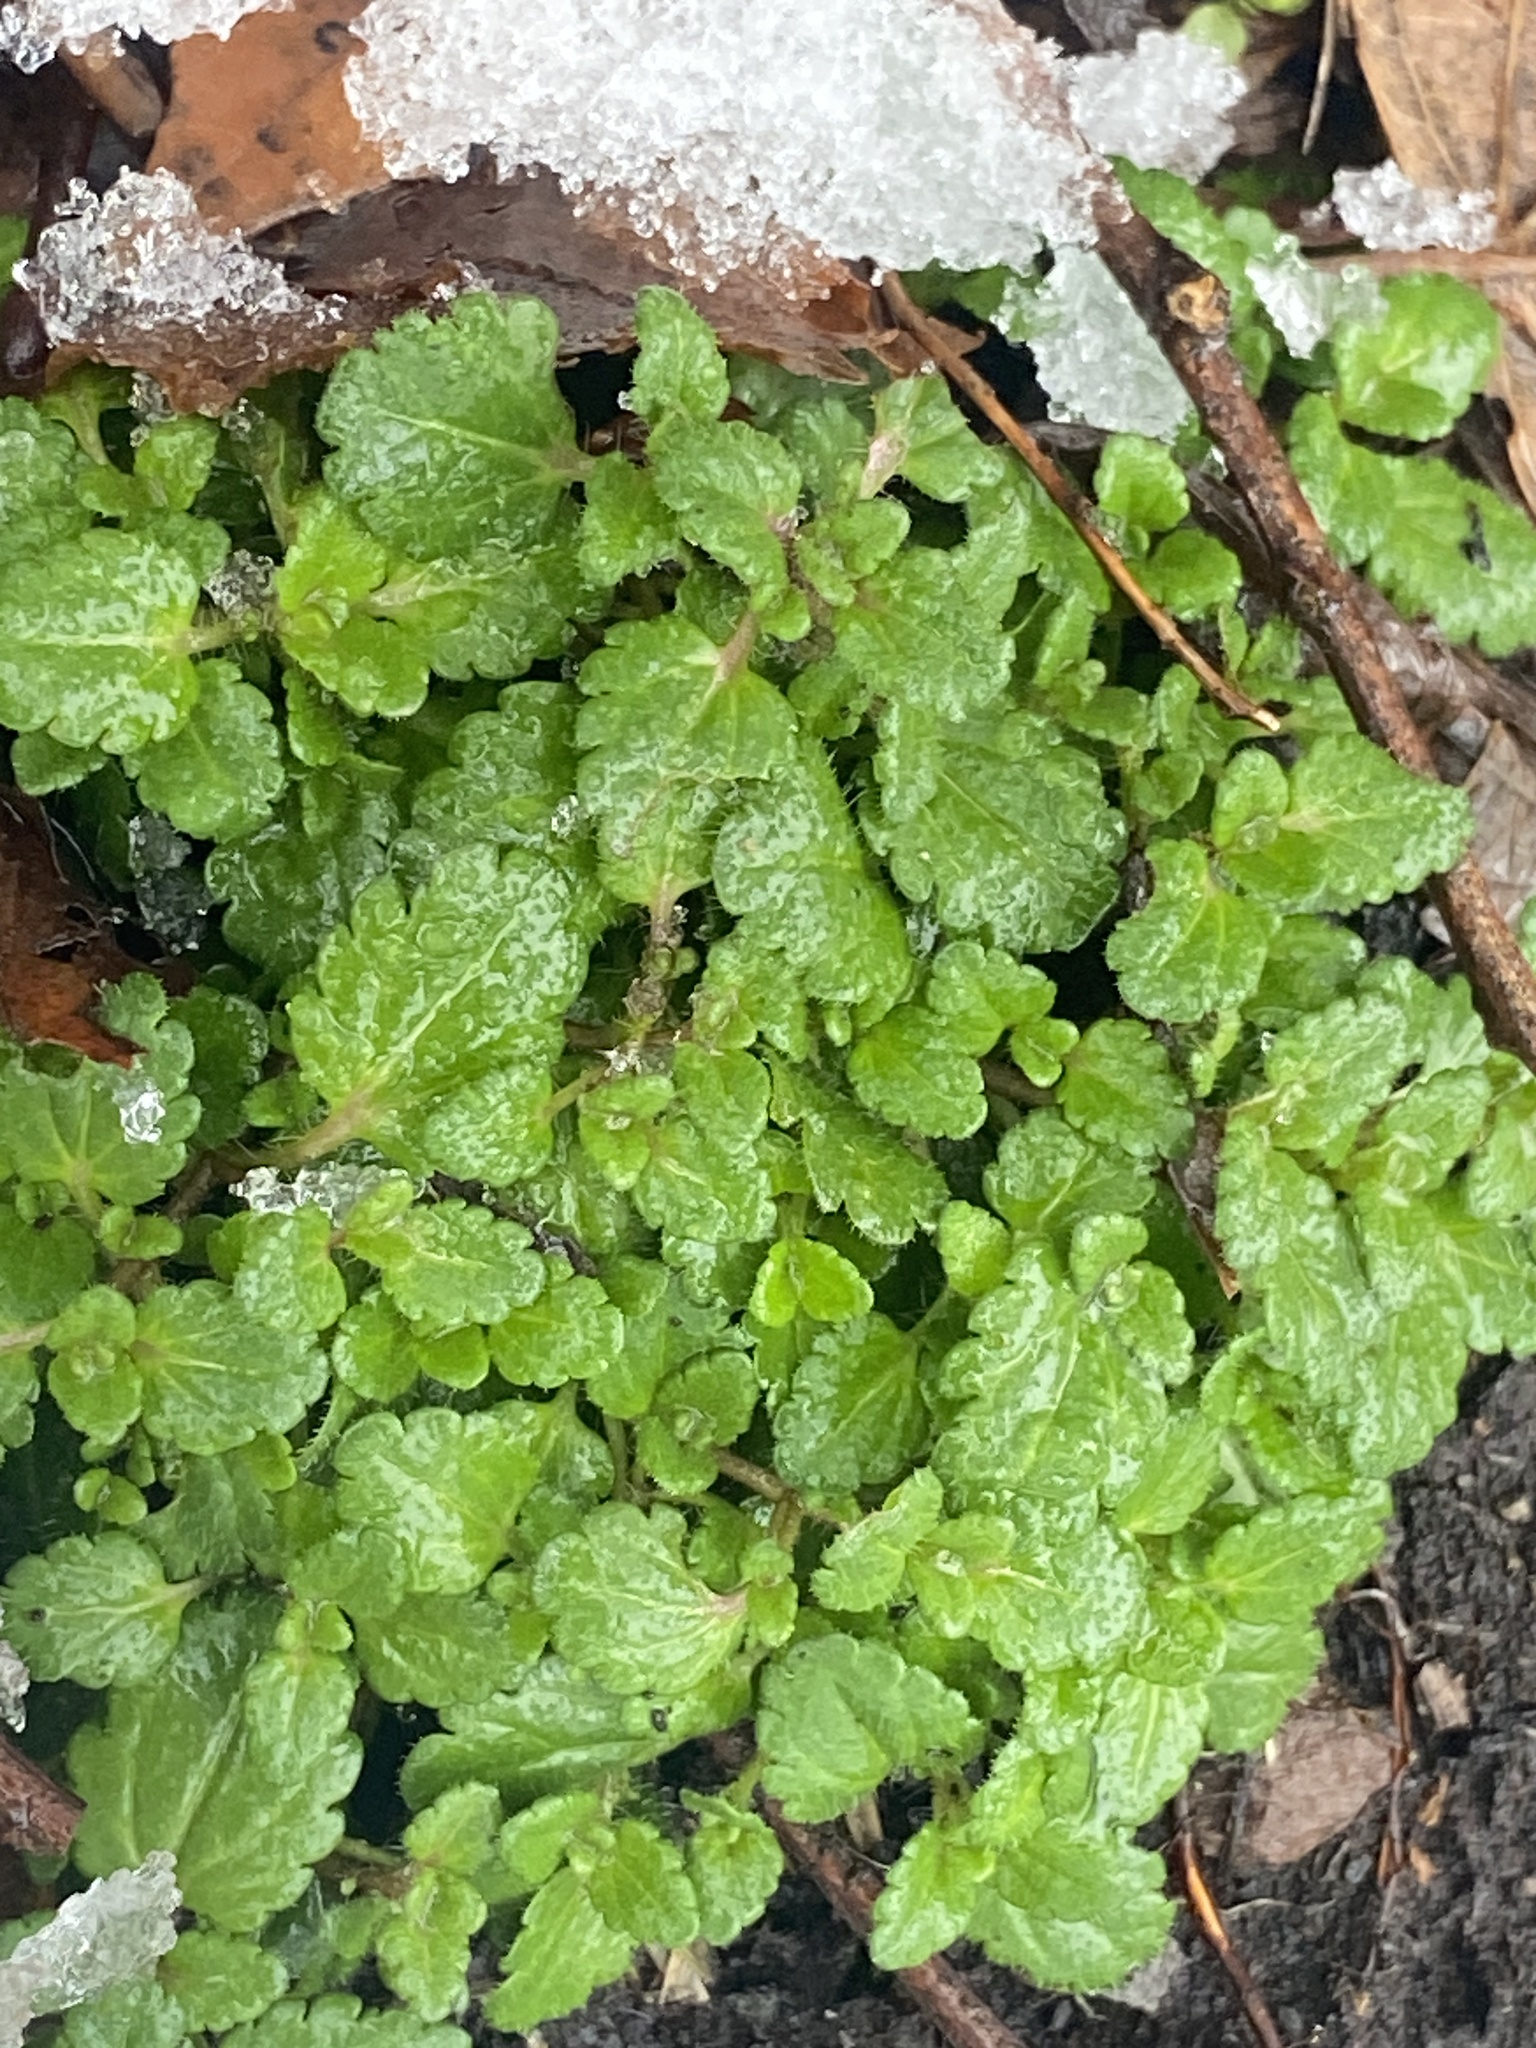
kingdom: Plantae
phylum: Tracheophyta
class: Magnoliopsida
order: Lamiales
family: Plantaginaceae
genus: Veronica
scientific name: Veronica persica
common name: Common field-speedwell
